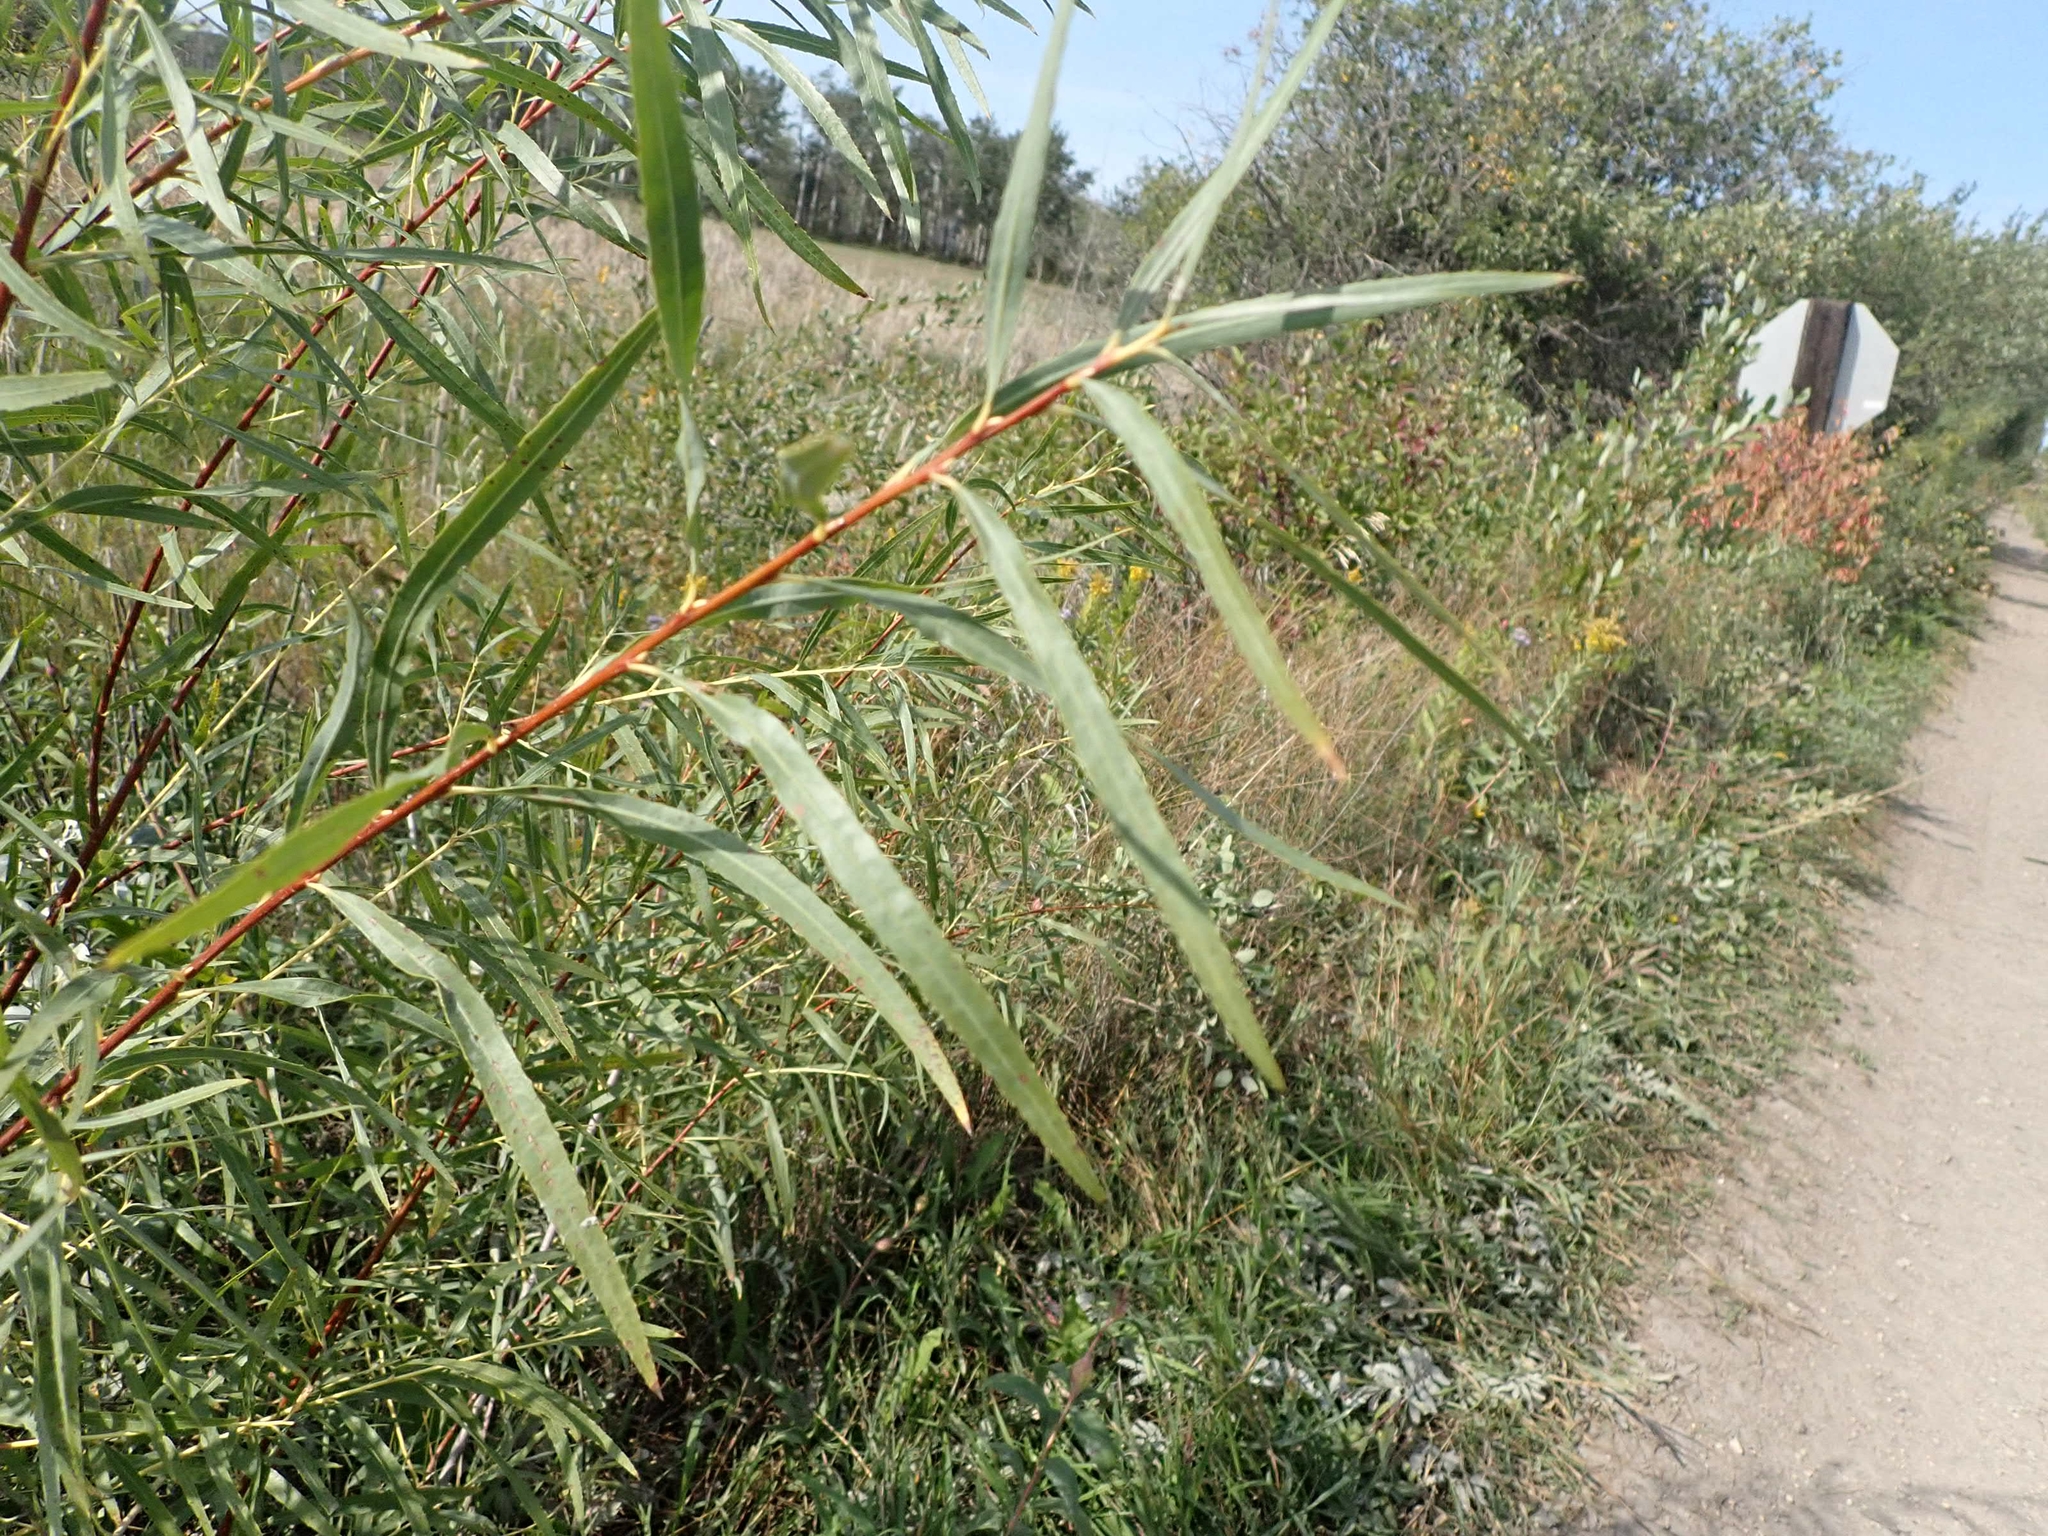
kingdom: Plantae
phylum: Tracheophyta
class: Magnoliopsida
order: Malpighiales
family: Salicaceae
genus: Salix
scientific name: Salix interior
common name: Sandbar willow
